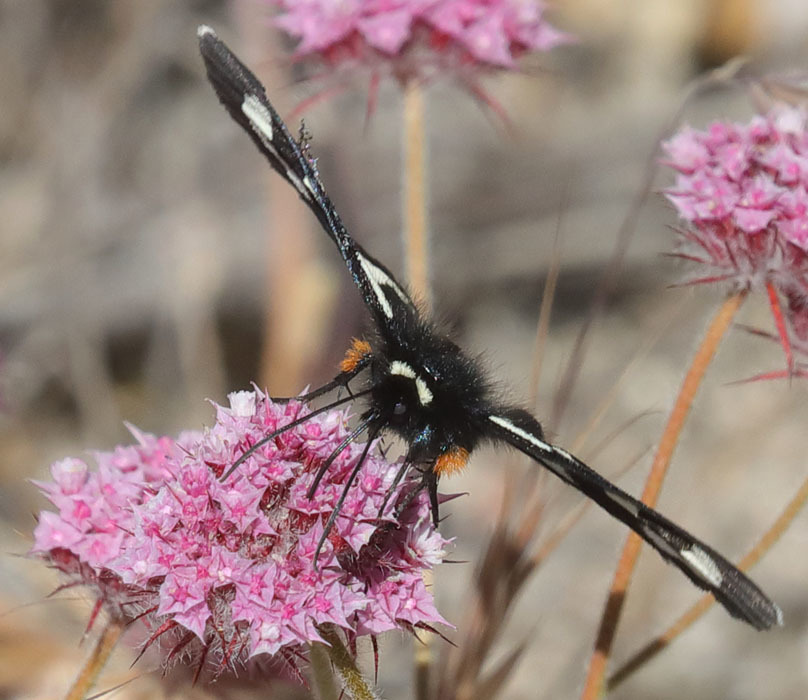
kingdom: Animalia
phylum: Arthropoda
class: Insecta
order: Lepidoptera
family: Noctuidae
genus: Alypia
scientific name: Alypia mariposa
